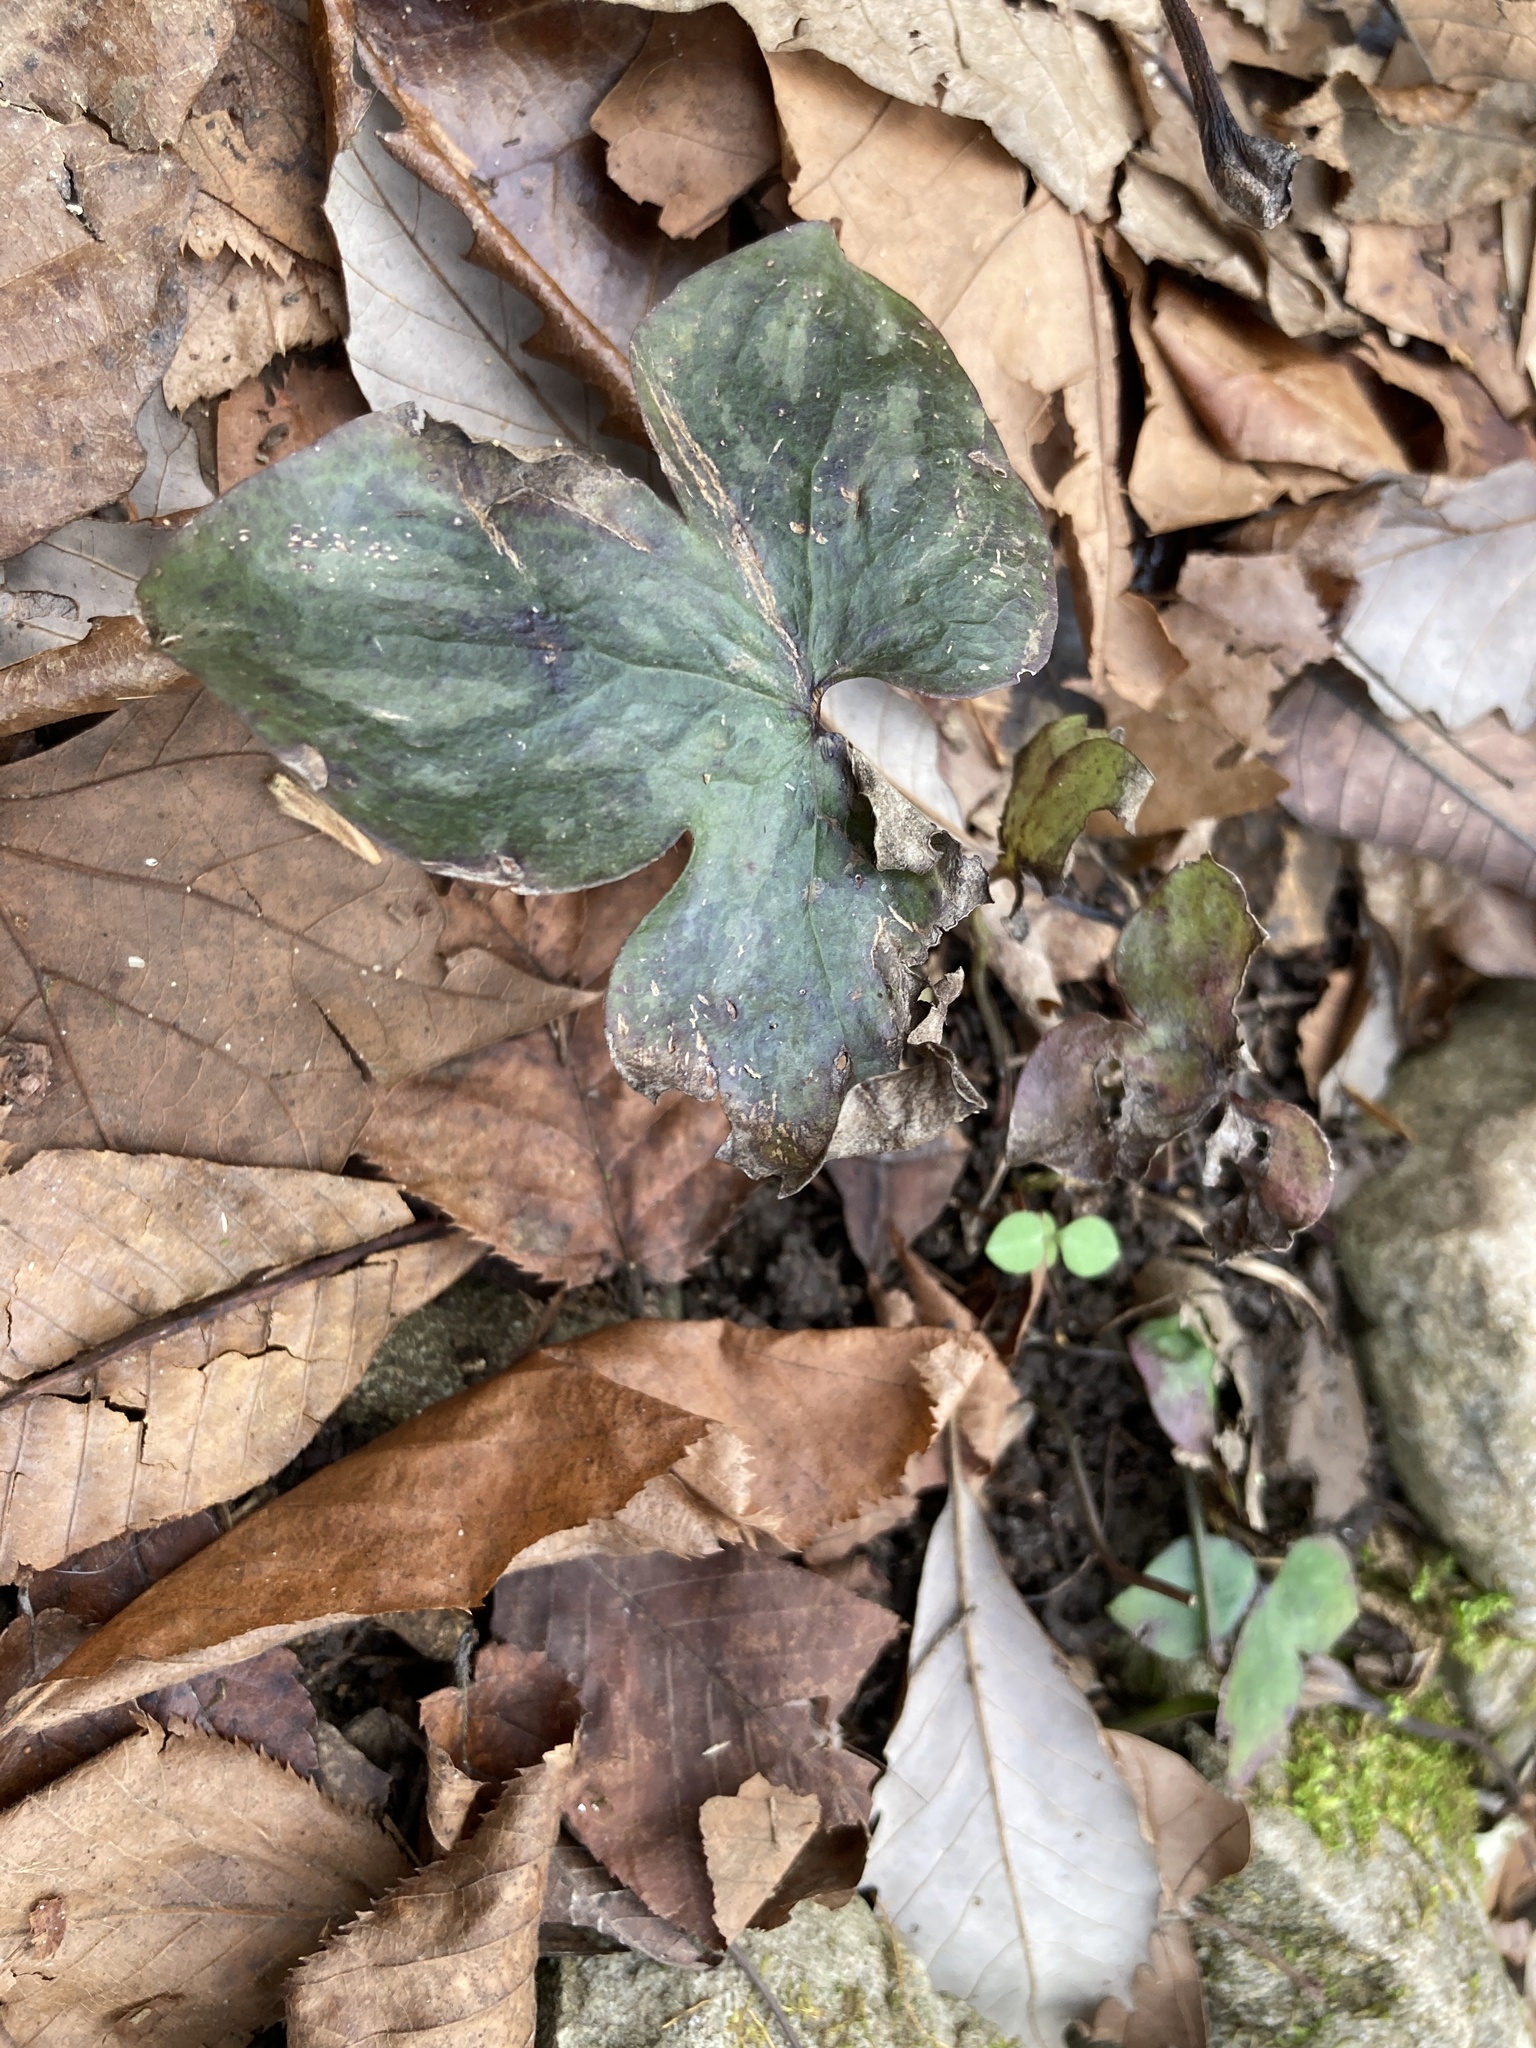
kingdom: Plantae
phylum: Tracheophyta
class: Magnoliopsida
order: Ranunculales
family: Ranunculaceae
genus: Hepatica
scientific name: Hepatica acutiloba
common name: Sharp-lobed hepatica
